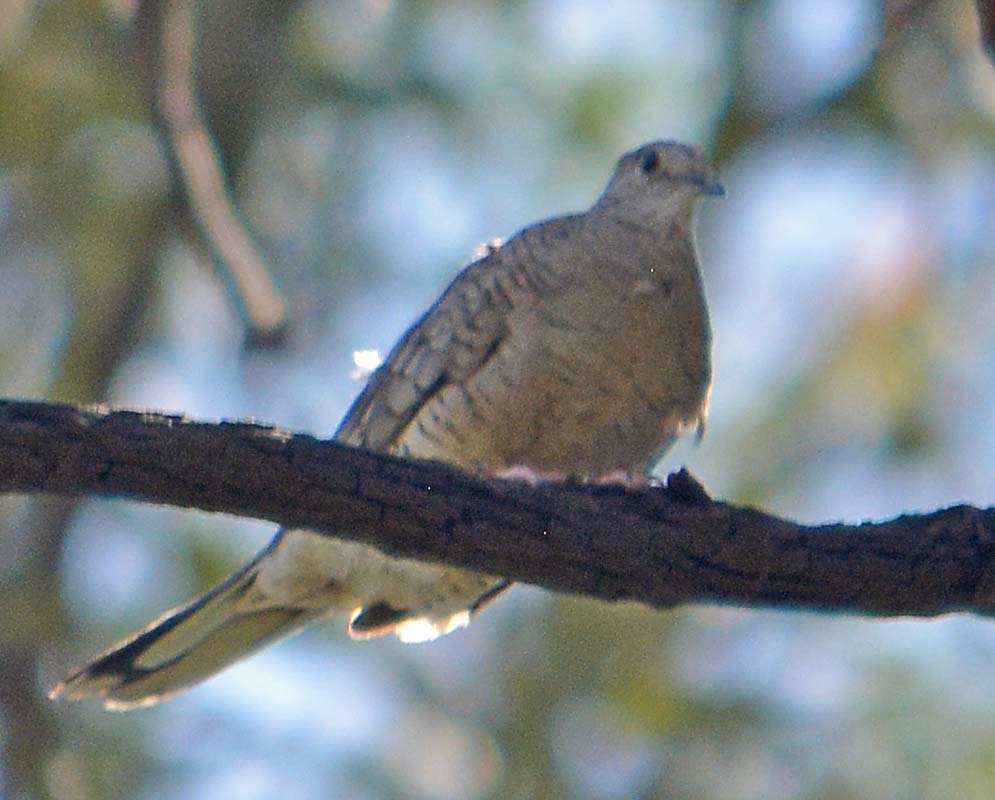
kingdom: Animalia
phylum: Chordata
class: Aves
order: Columbiformes
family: Columbidae
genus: Columbina
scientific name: Columbina inca
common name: Inca dove
